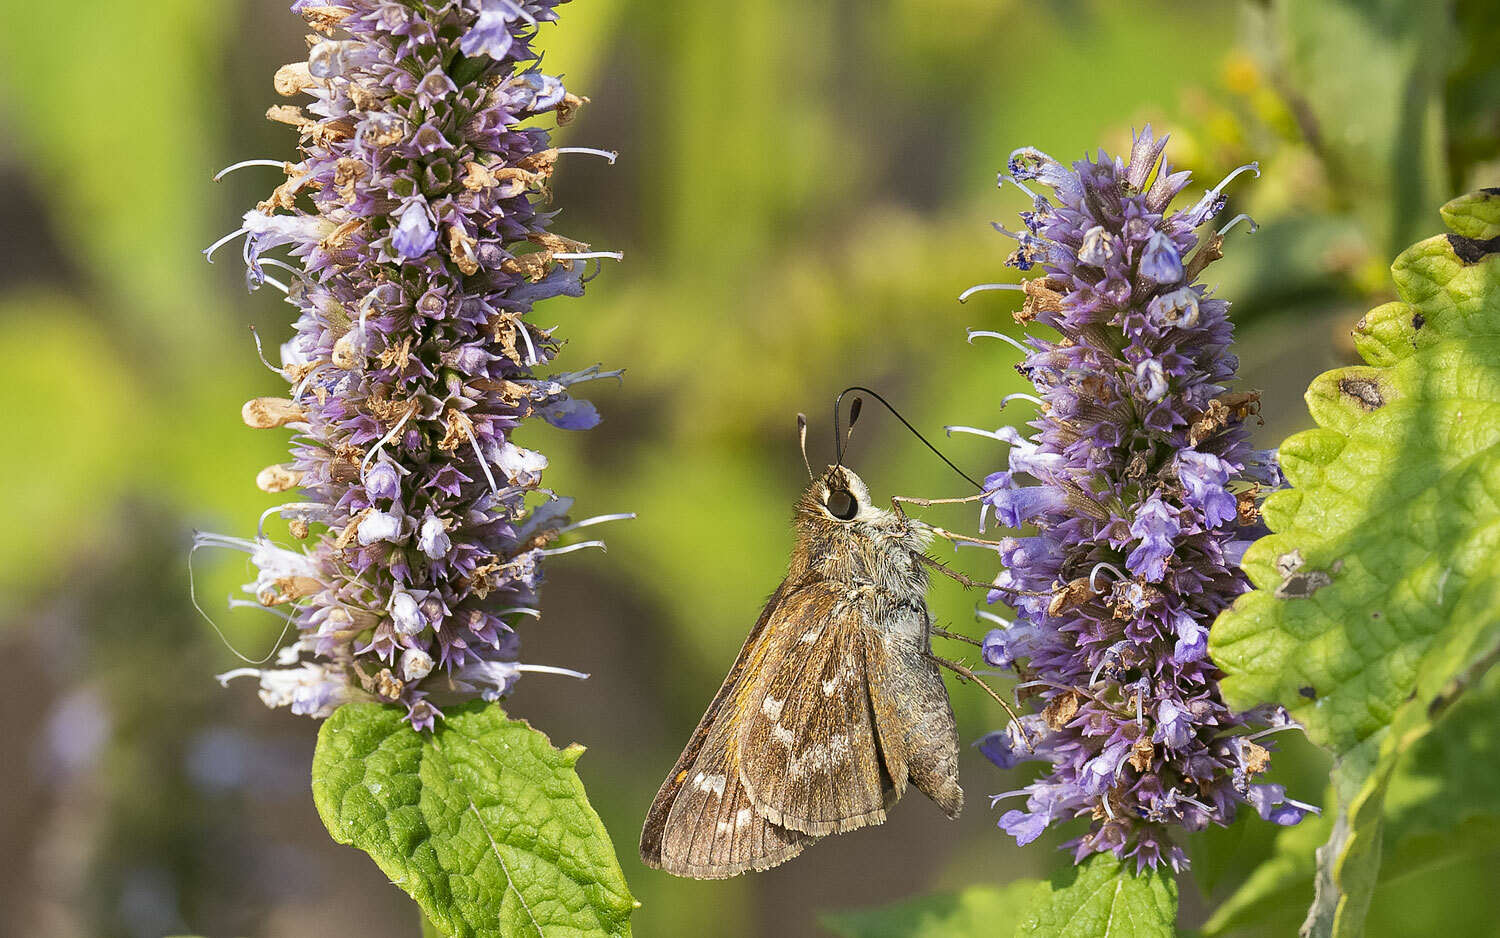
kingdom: Animalia
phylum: Arthropoda
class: Insecta
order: Lepidoptera
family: Hesperiidae
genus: Atalopedes
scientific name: Atalopedes
